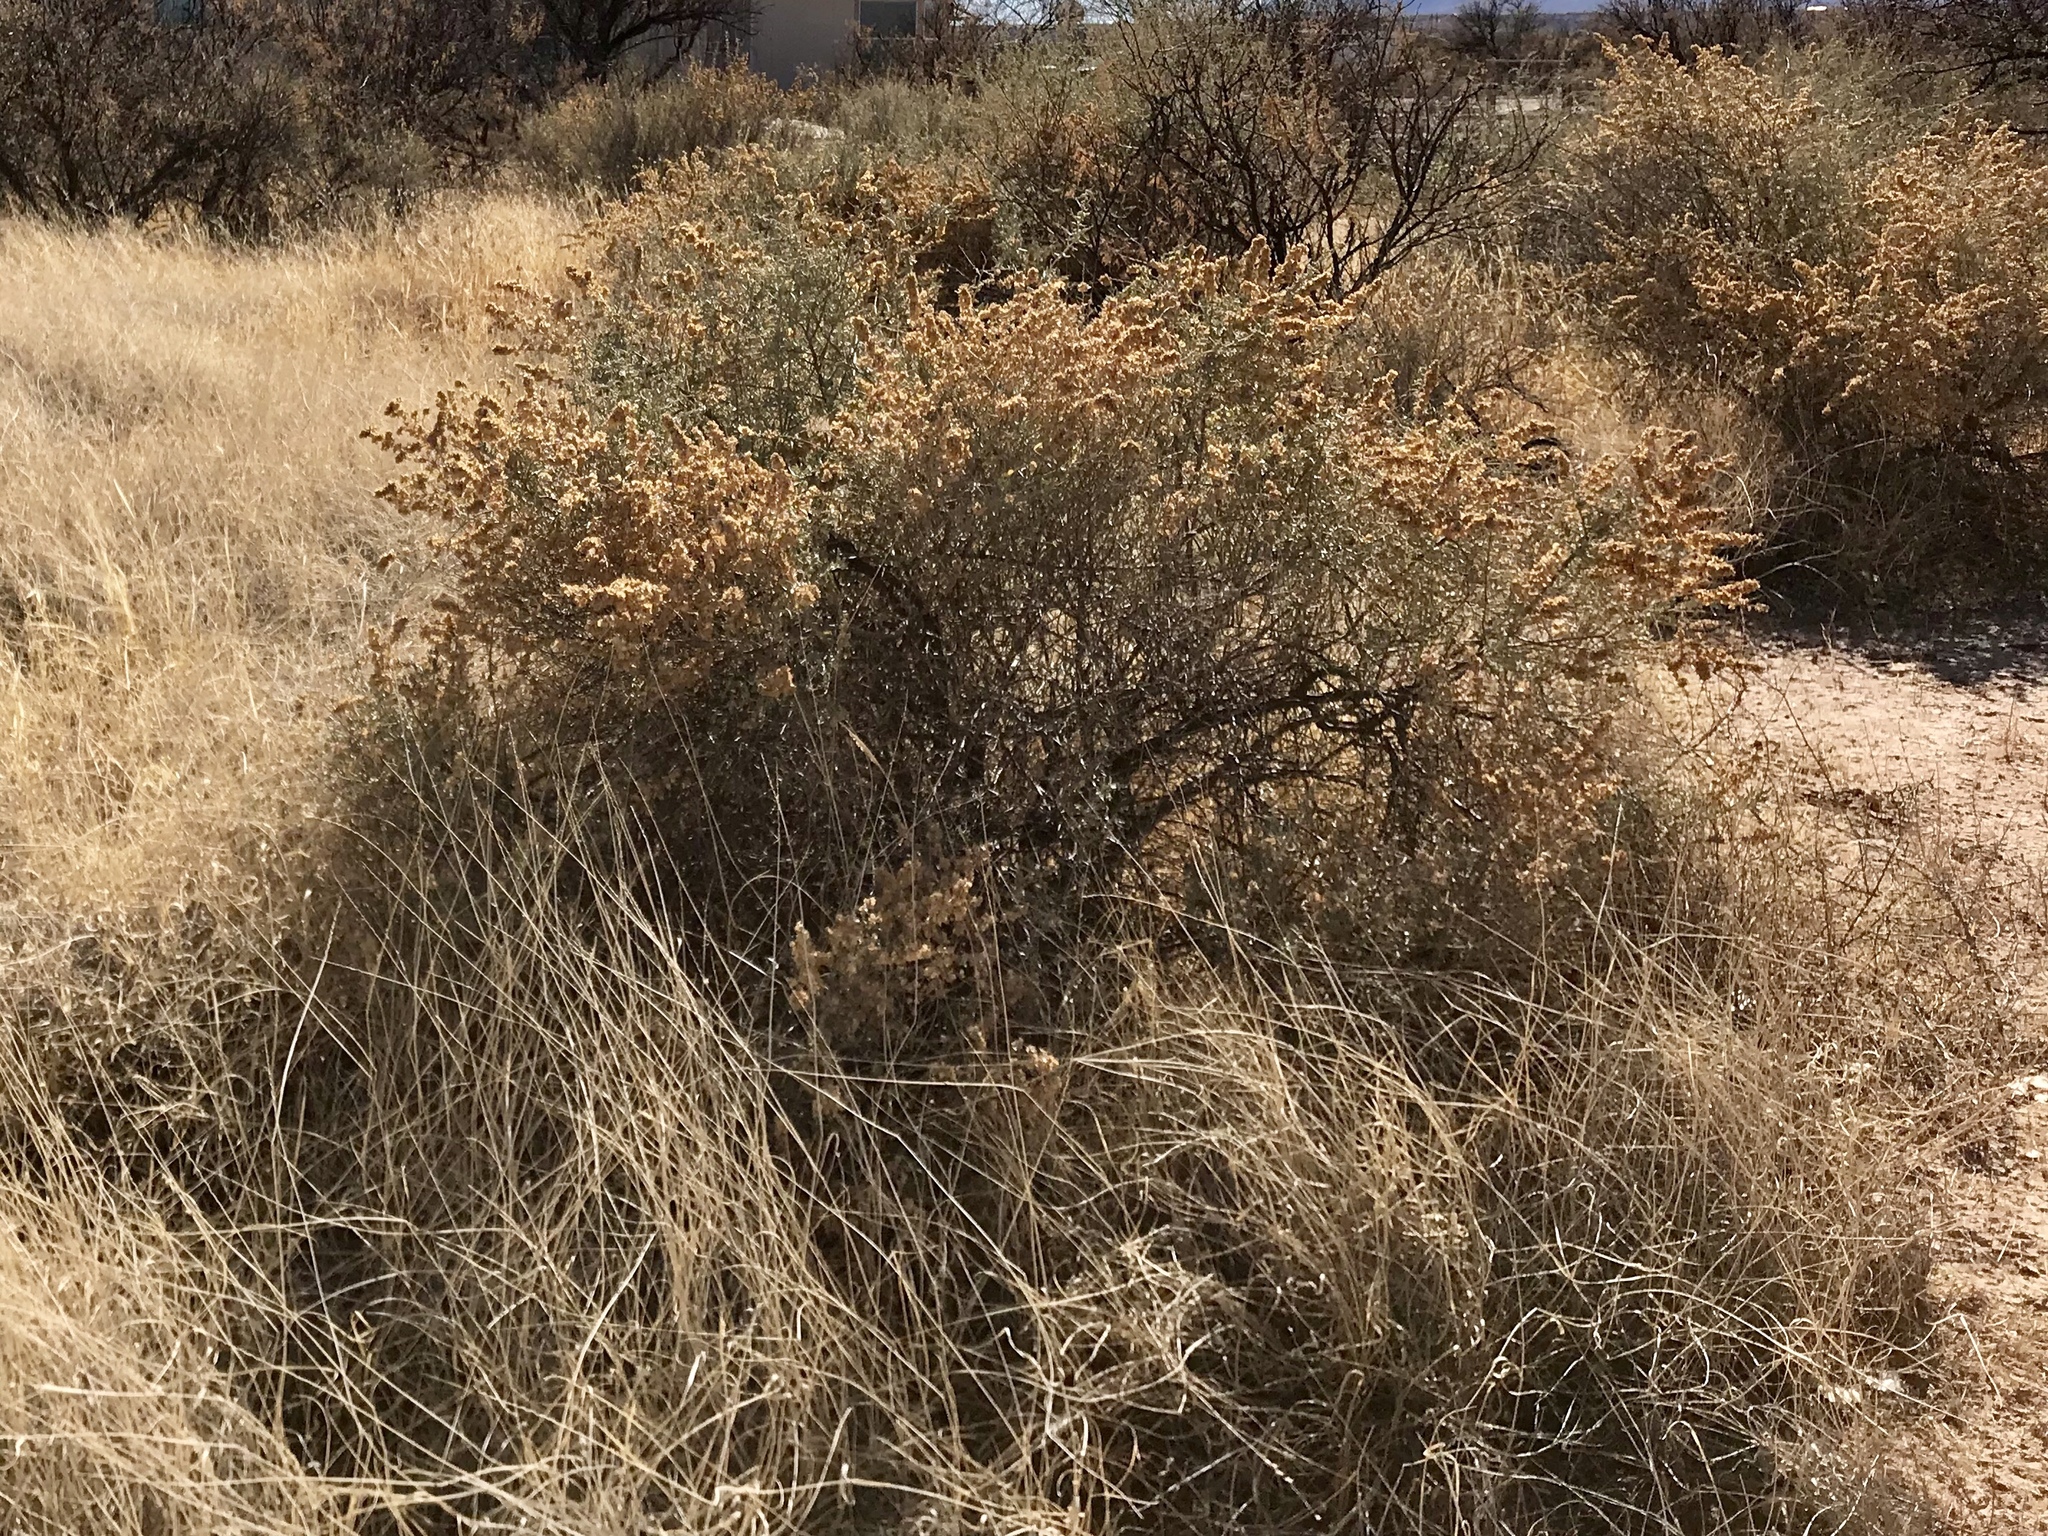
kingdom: Plantae
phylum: Tracheophyta
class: Magnoliopsida
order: Caryophyllales
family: Amaranthaceae
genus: Atriplex
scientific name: Atriplex canescens
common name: Four-wing saltbush
